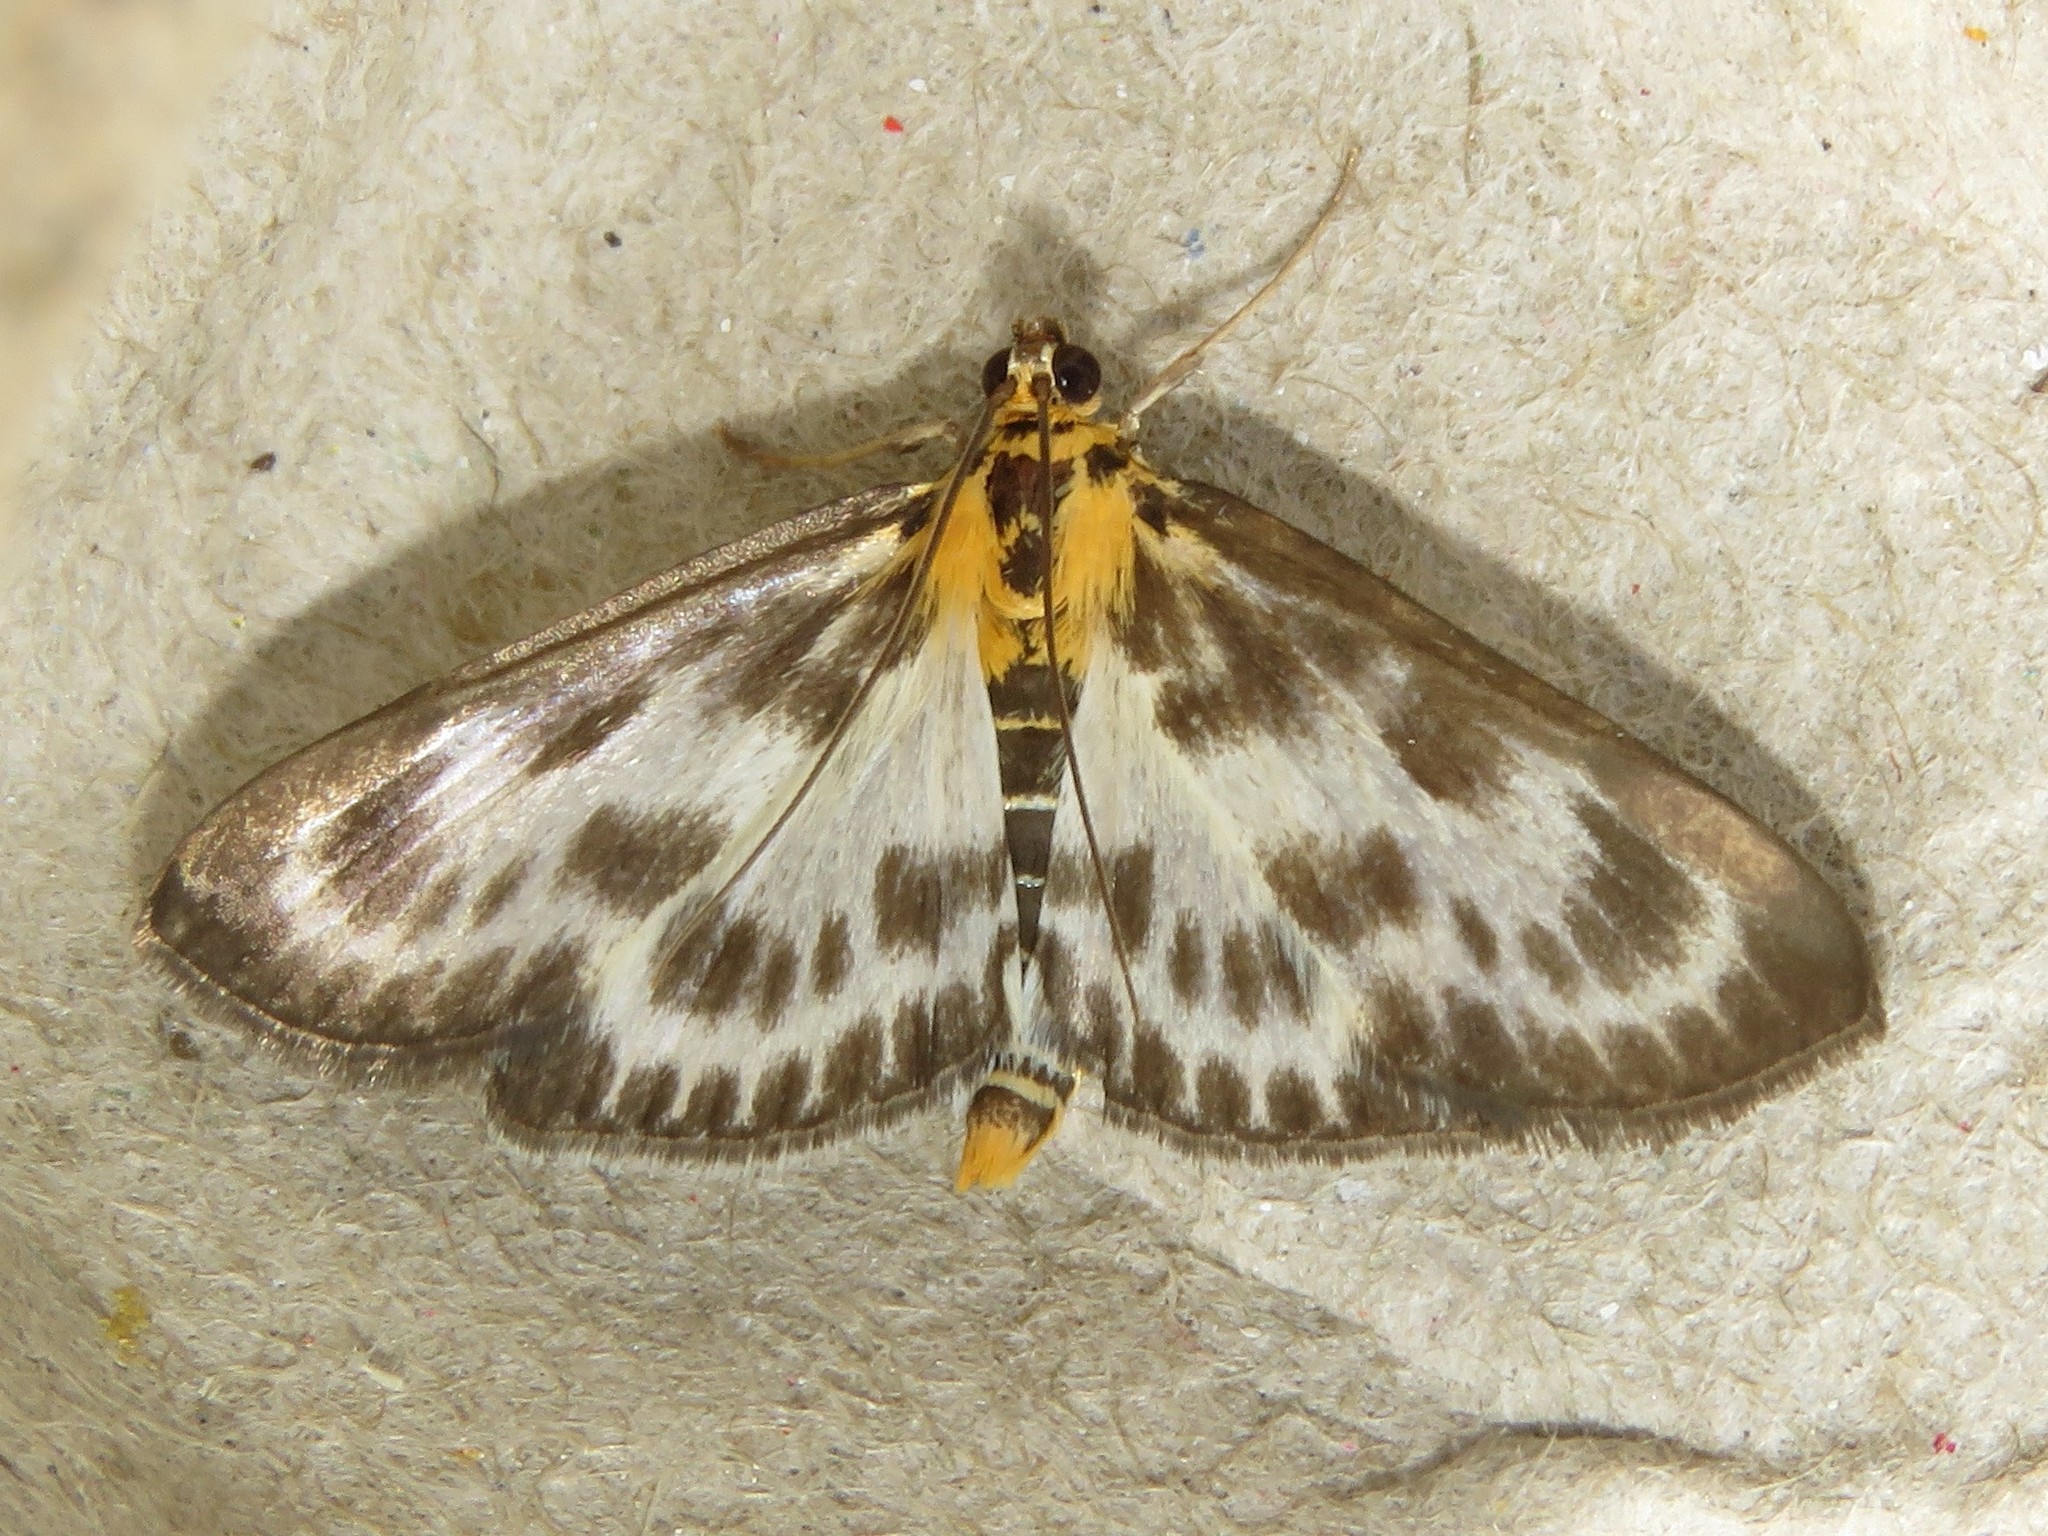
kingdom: Animalia
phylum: Arthropoda
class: Insecta
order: Lepidoptera
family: Crambidae
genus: Anania
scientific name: Anania hortulata
